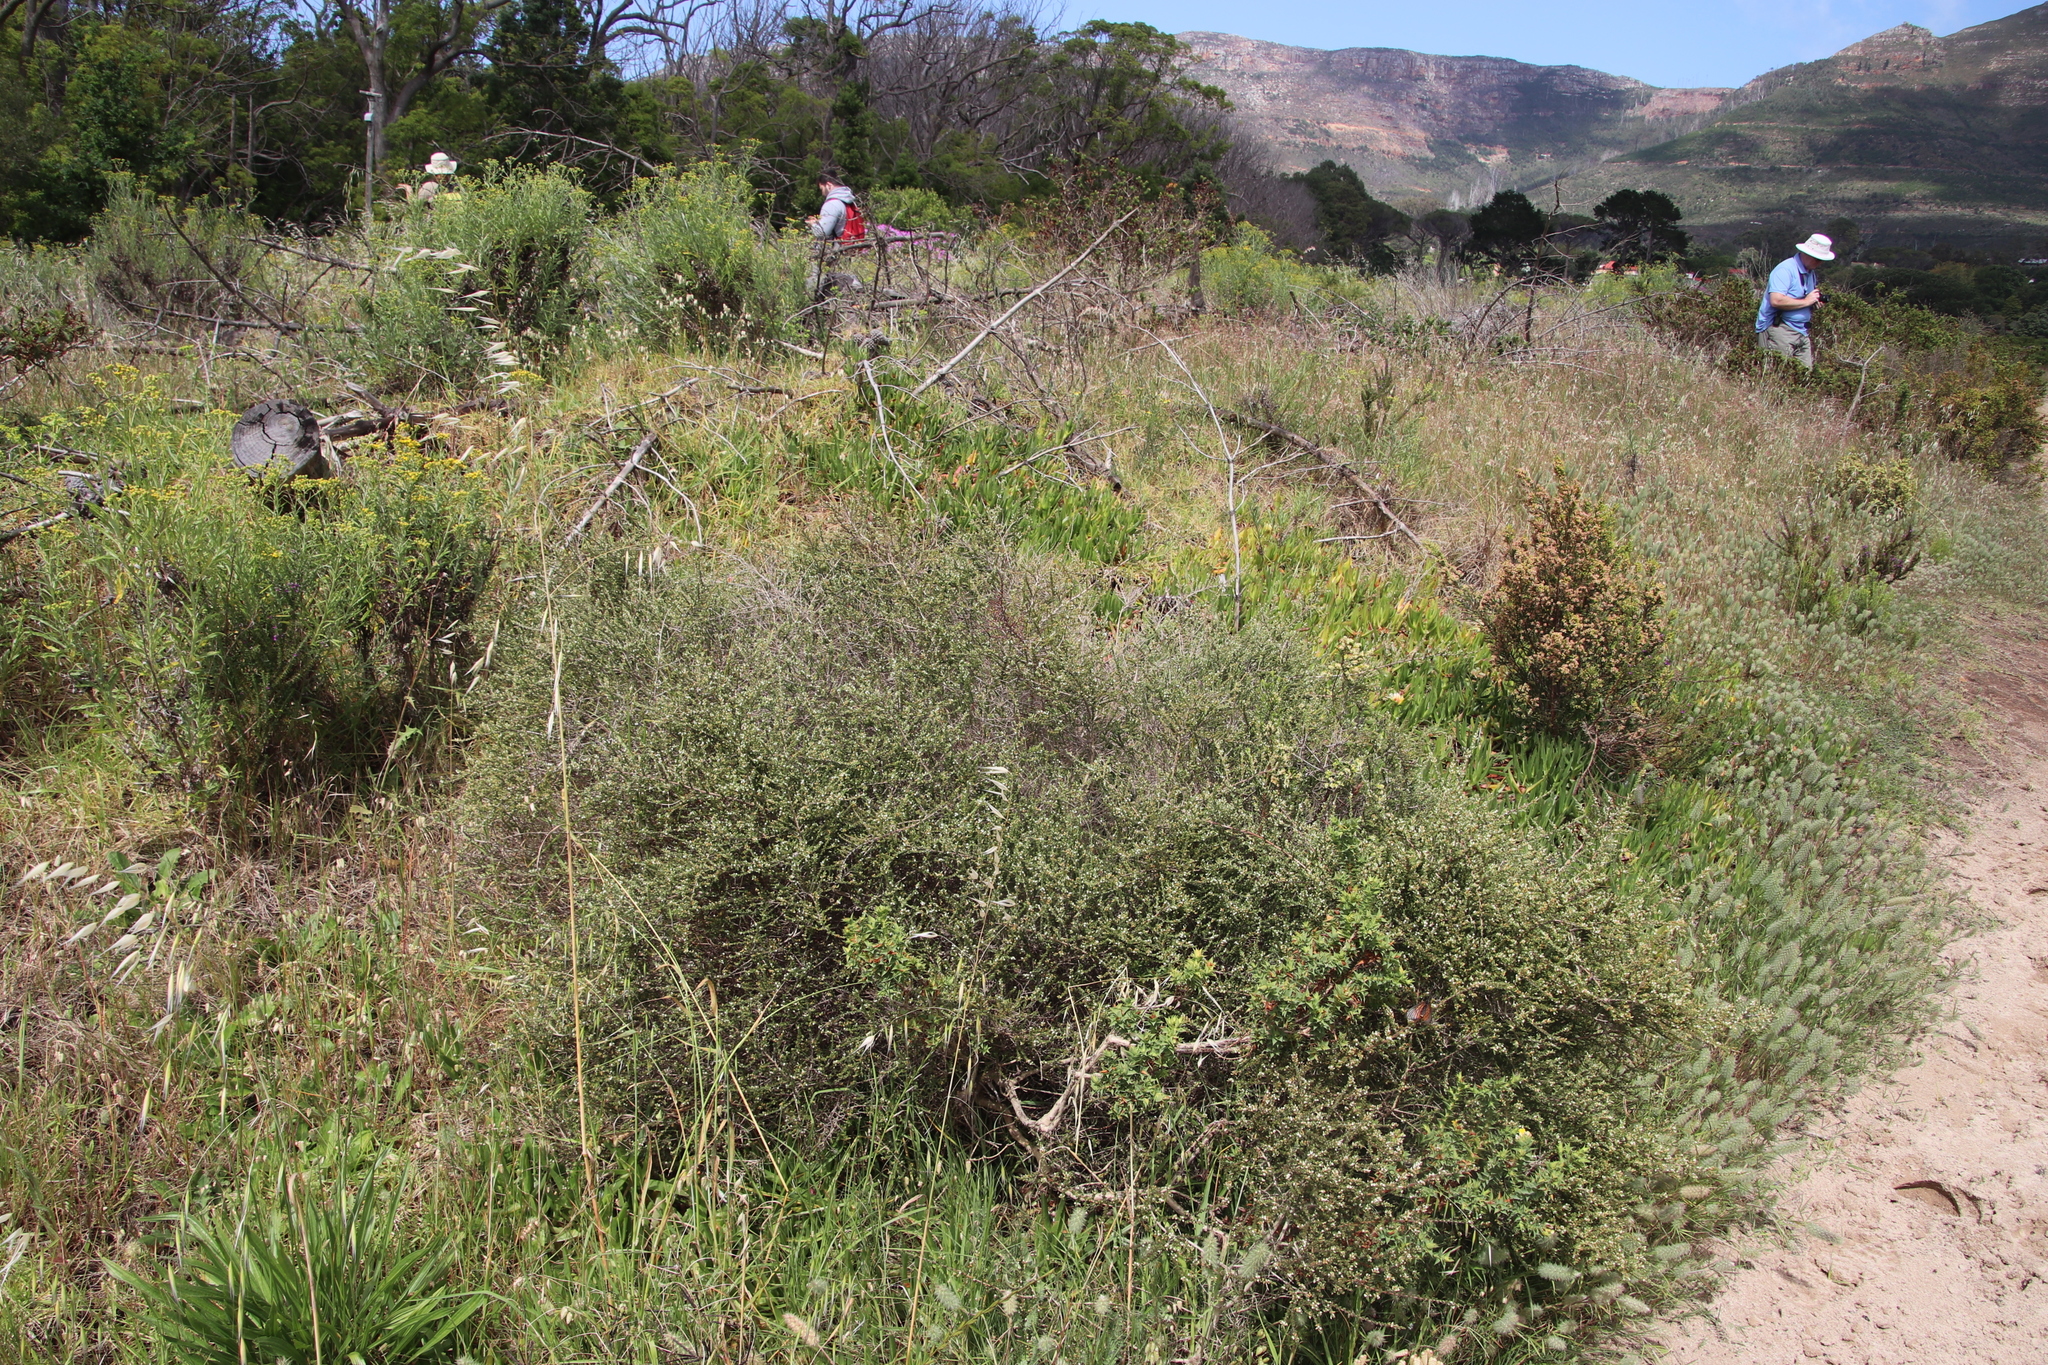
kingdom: Plantae
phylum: Tracheophyta
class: Magnoliopsida
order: Fabales
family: Fabaceae
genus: Aspalathus
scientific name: Aspalathus hispida
